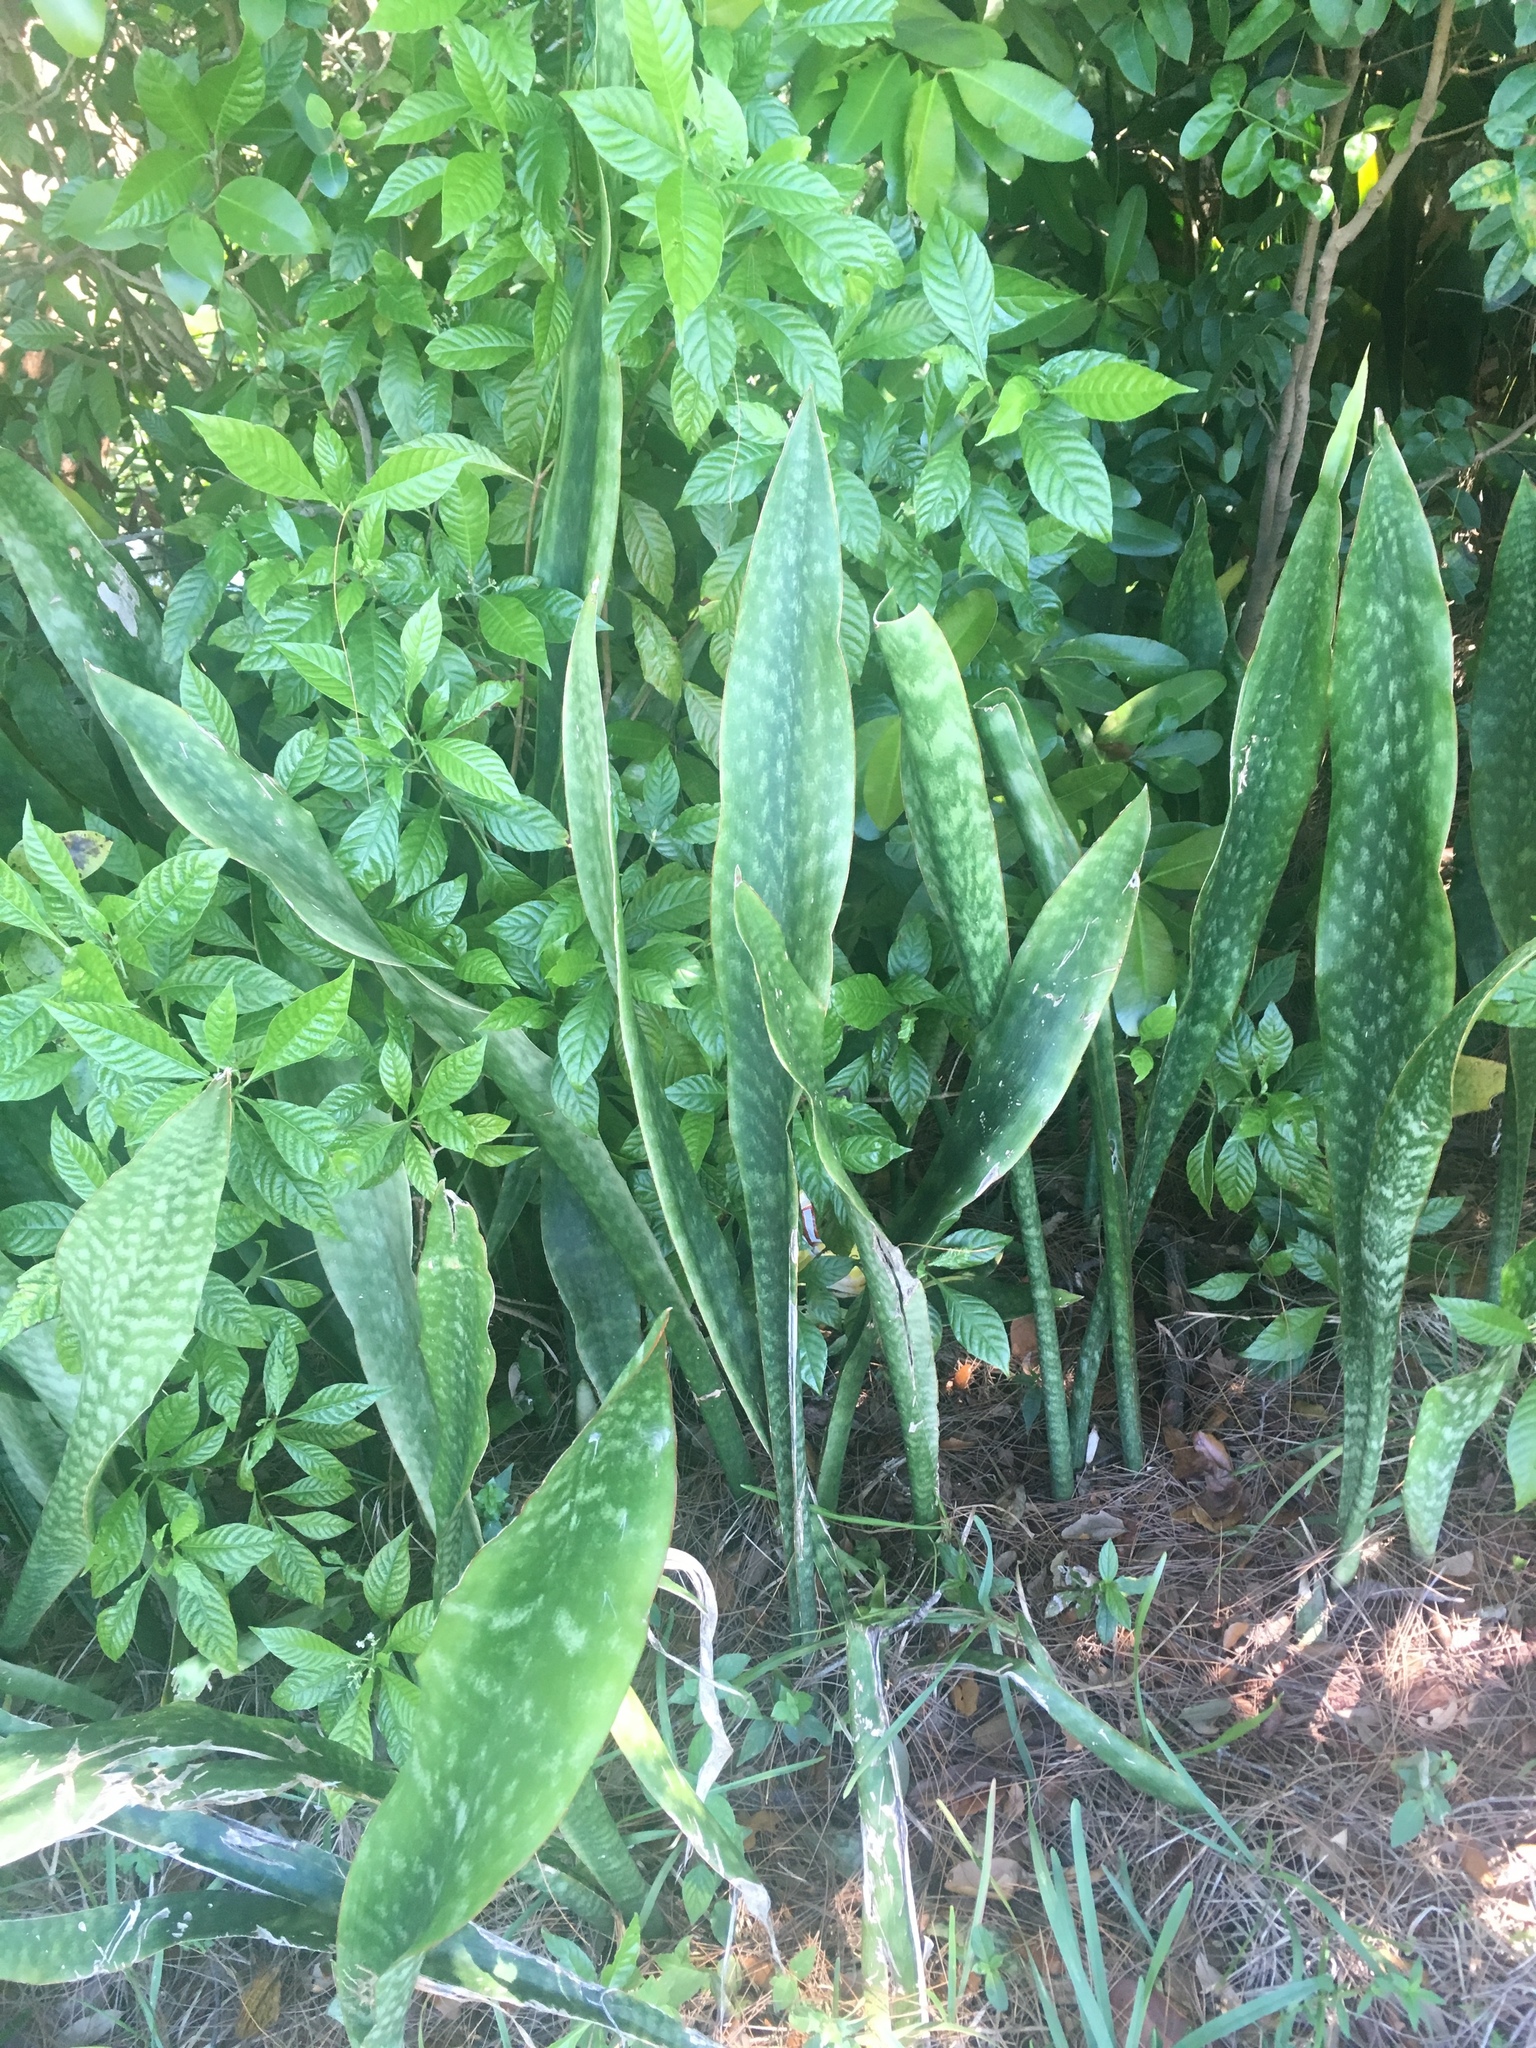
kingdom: Plantae
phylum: Tracheophyta
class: Liliopsida
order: Asparagales
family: Asparagaceae
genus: Dracaena
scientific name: Dracaena hyacinthoides
